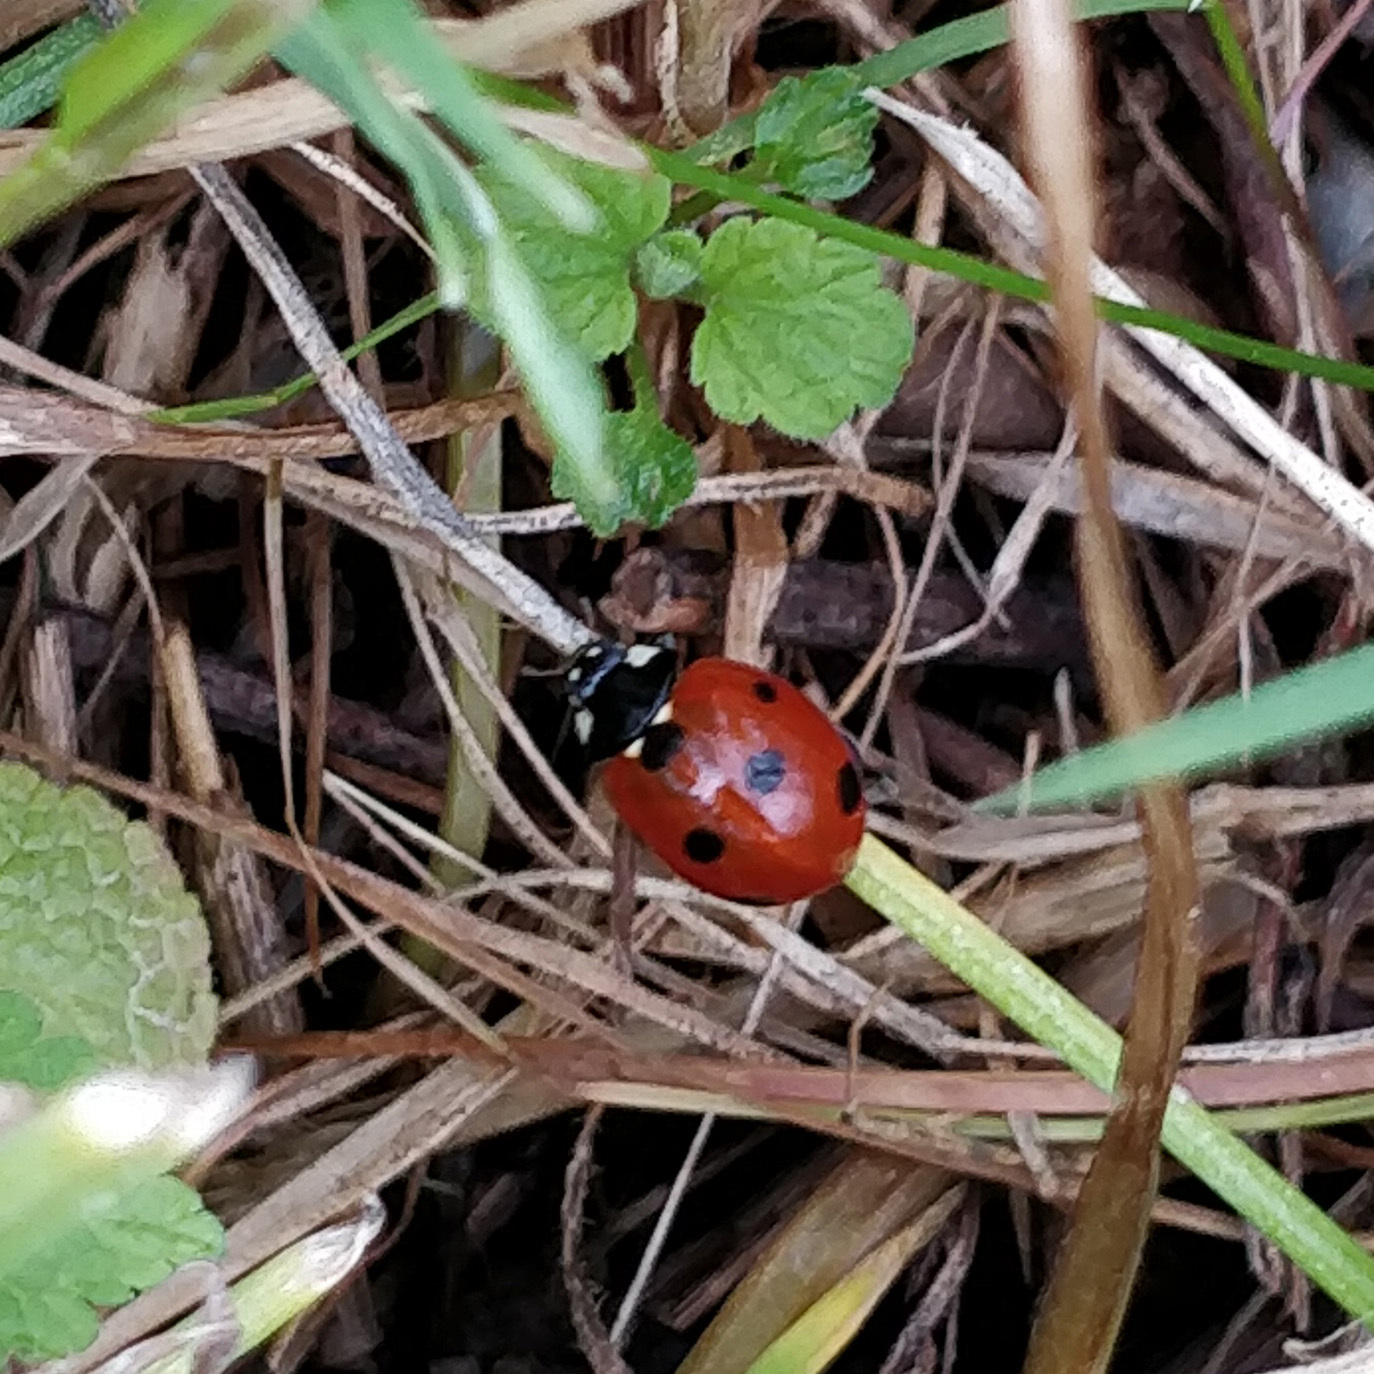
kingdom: Animalia
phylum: Arthropoda
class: Insecta
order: Coleoptera
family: Coccinellidae
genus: Coccinella
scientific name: Coccinella septempunctata
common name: Sevenspotted lady beetle
